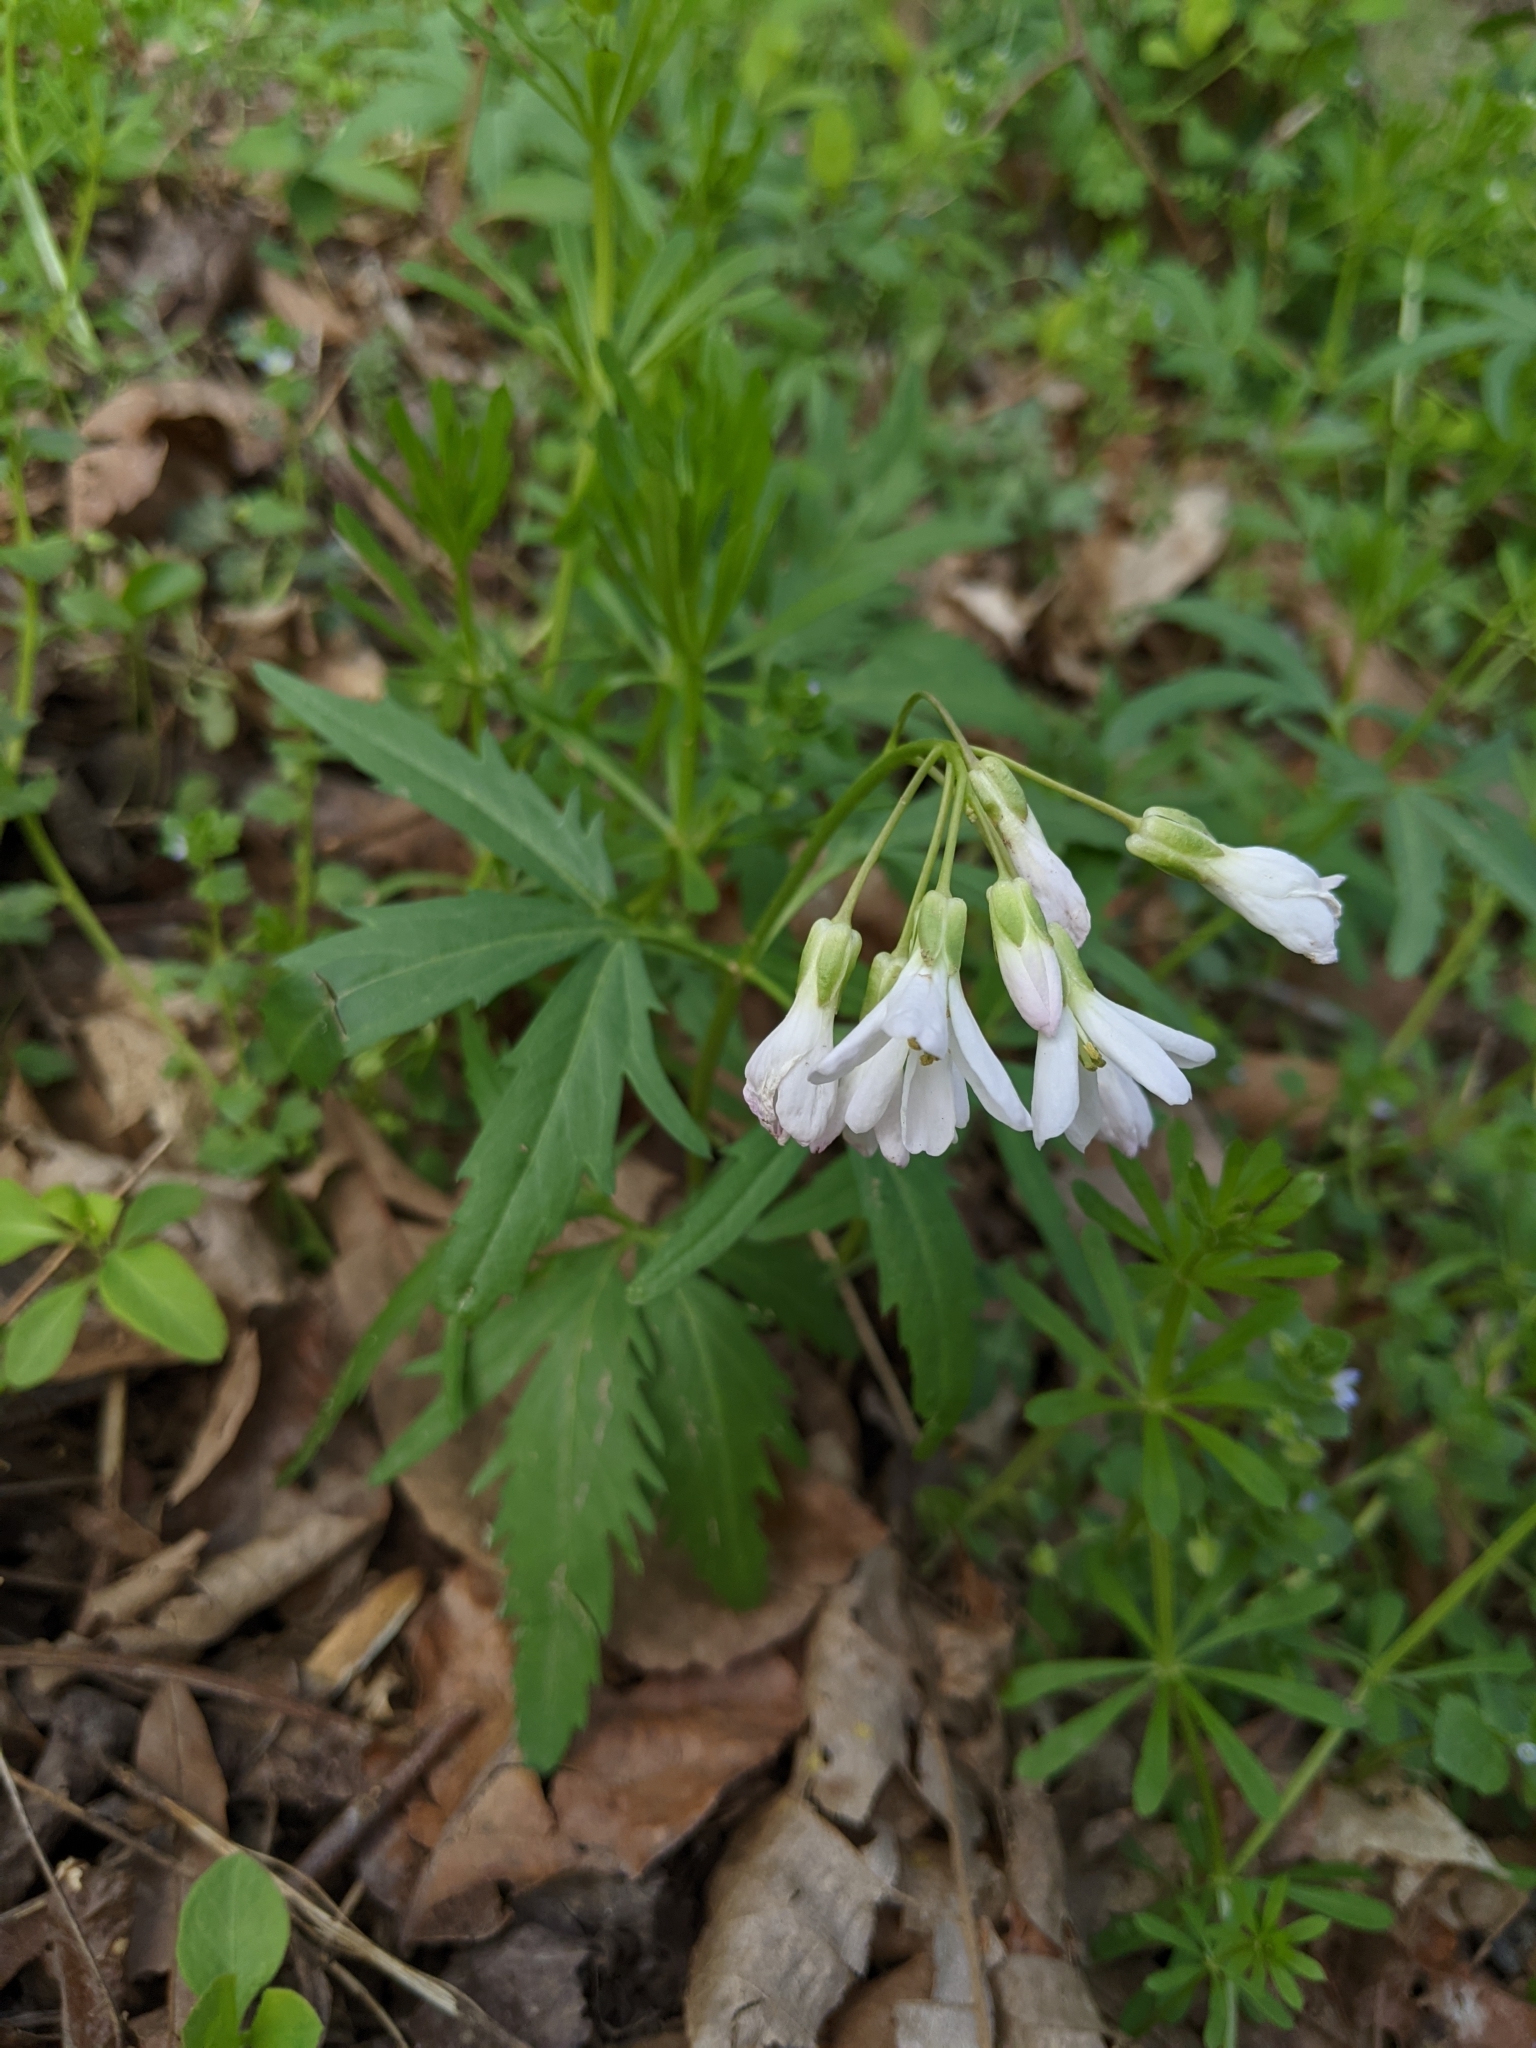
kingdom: Plantae
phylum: Tracheophyta
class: Magnoliopsida
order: Brassicales
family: Brassicaceae
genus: Cardamine
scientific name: Cardamine concatenata
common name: Cut-leaf toothcup
